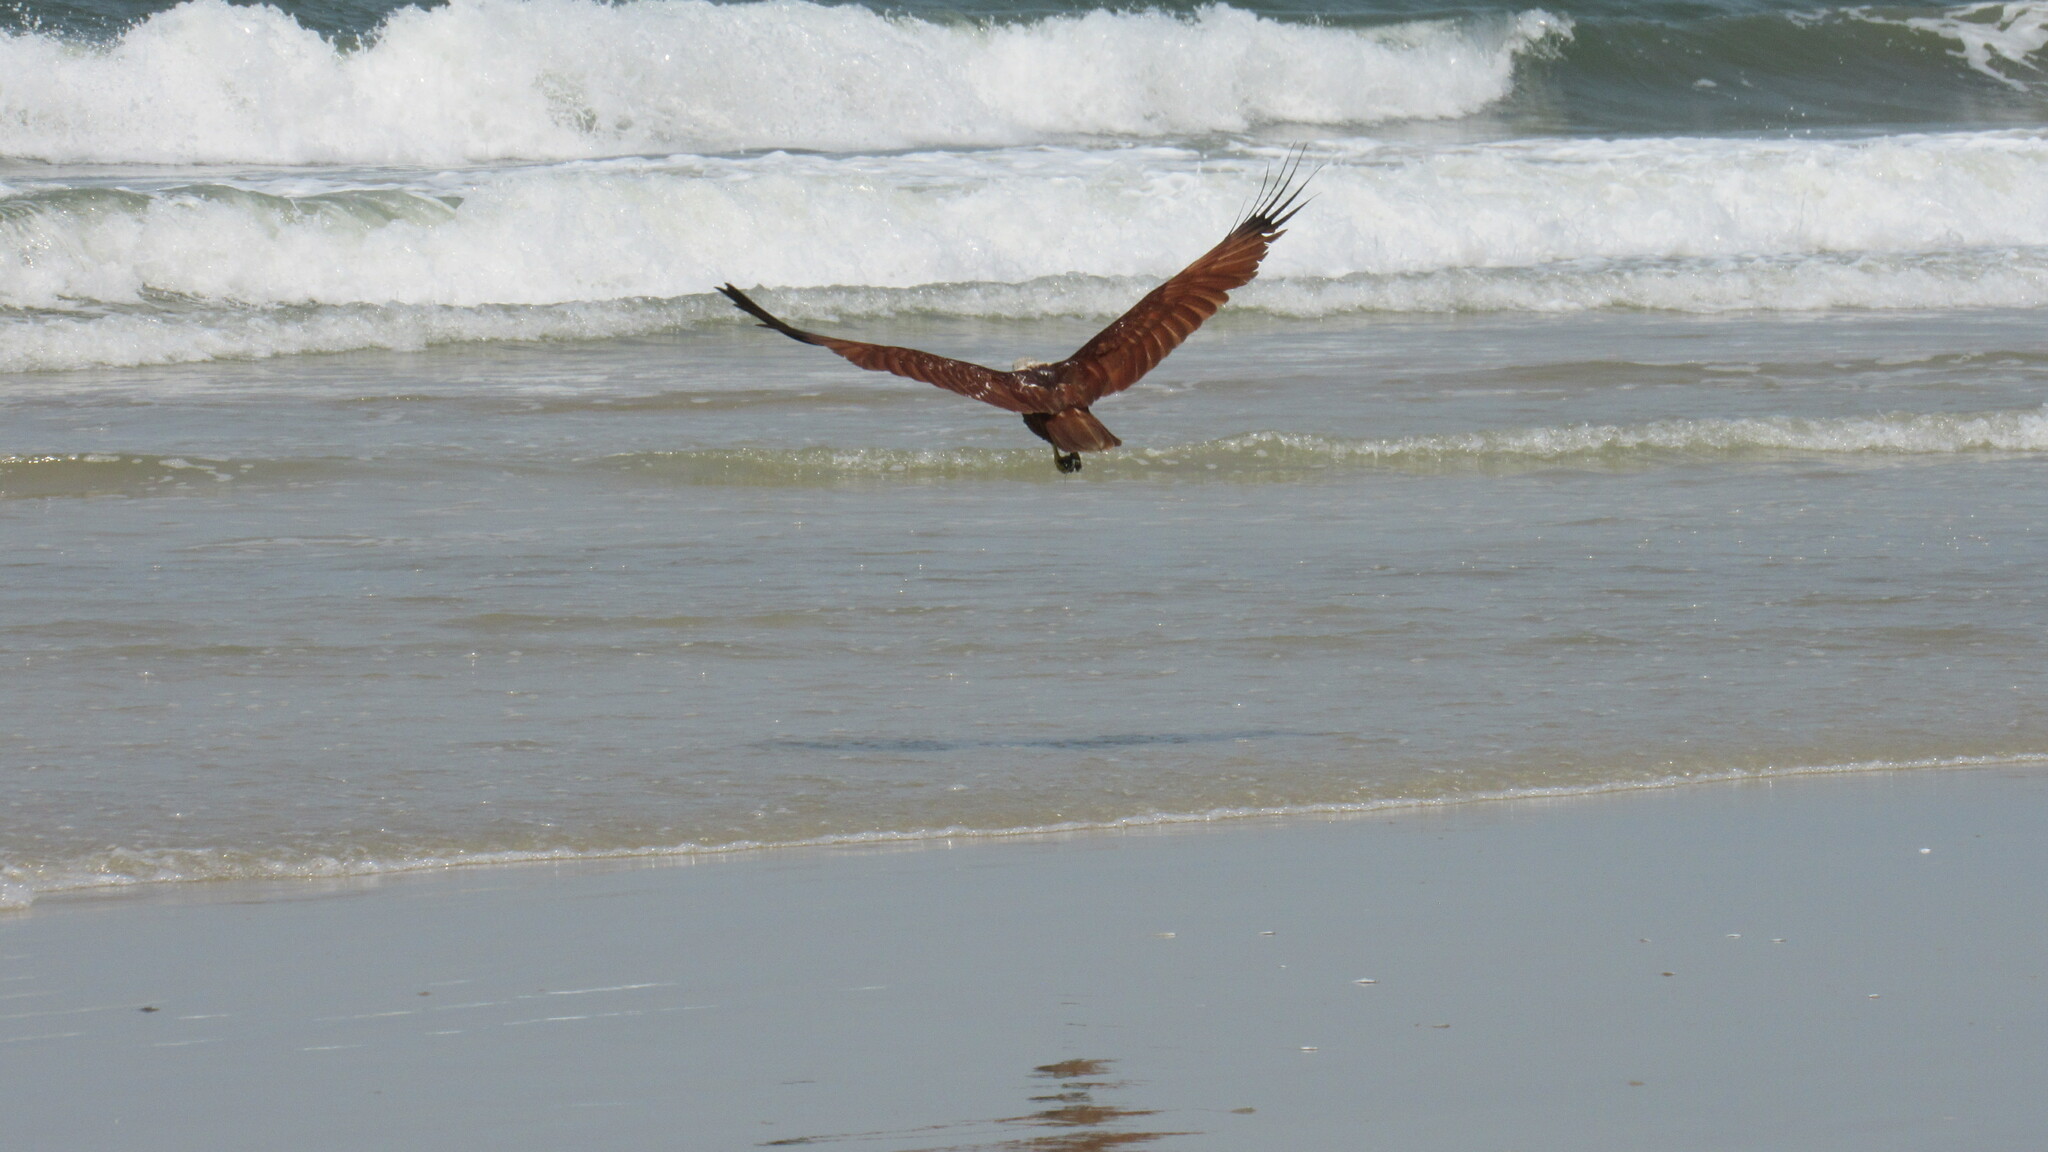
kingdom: Animalia
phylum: Chordata
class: Aves
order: Accipitriformes
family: Accipitridae
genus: Haliastur
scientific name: Haliastur indus
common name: Brahminy kite
